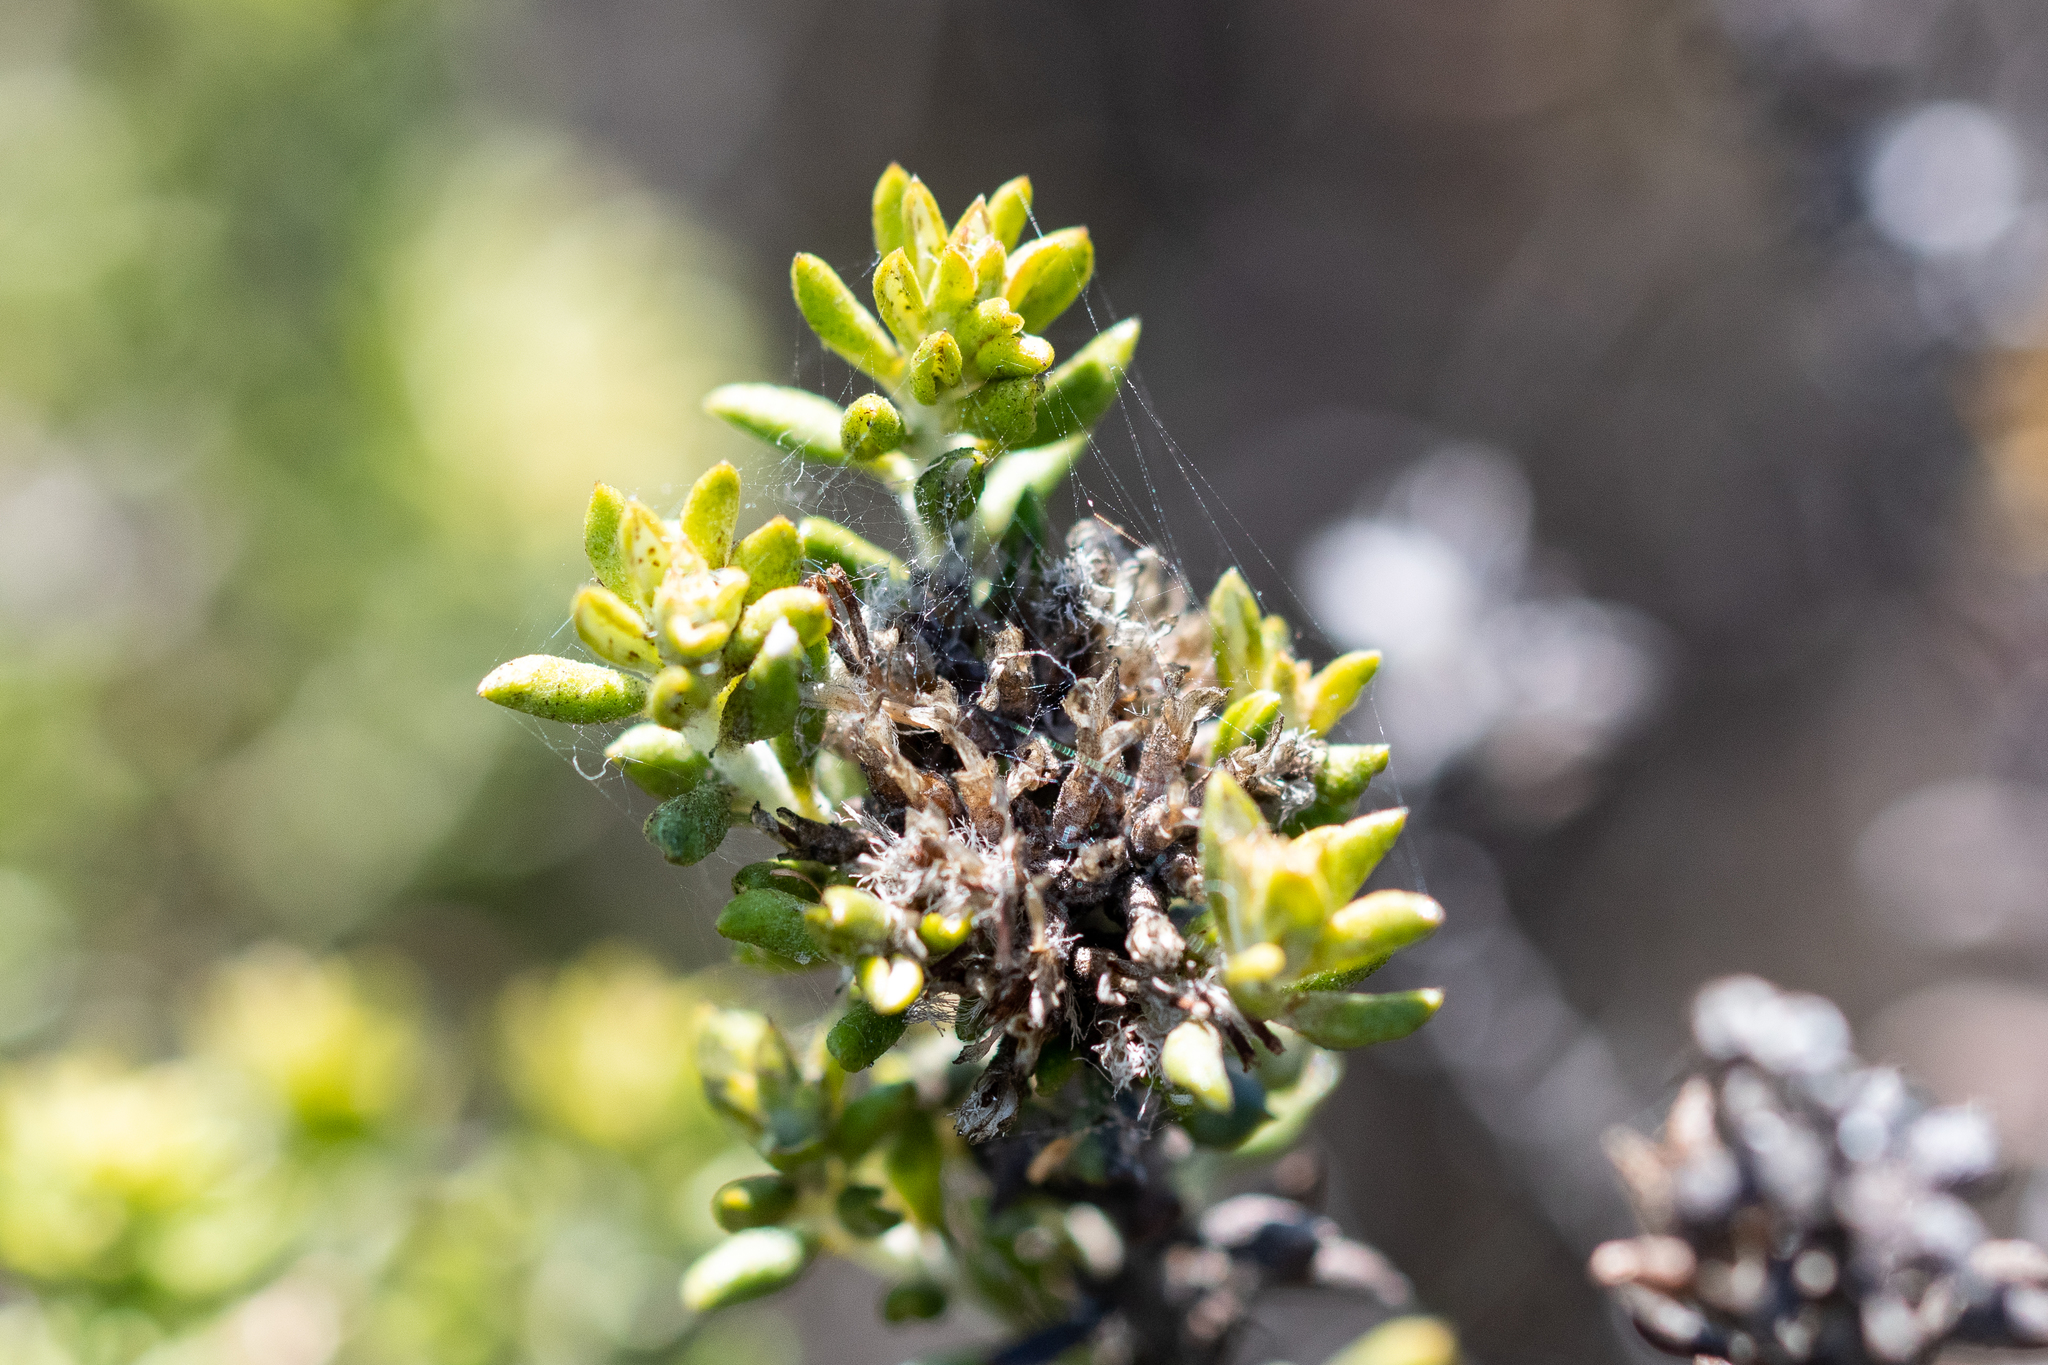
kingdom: Plantae
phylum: Tracheophyta
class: Magnoliopsida
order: Asterales
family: Asteraceae
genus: Metalasia
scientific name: Metalasia muricata
